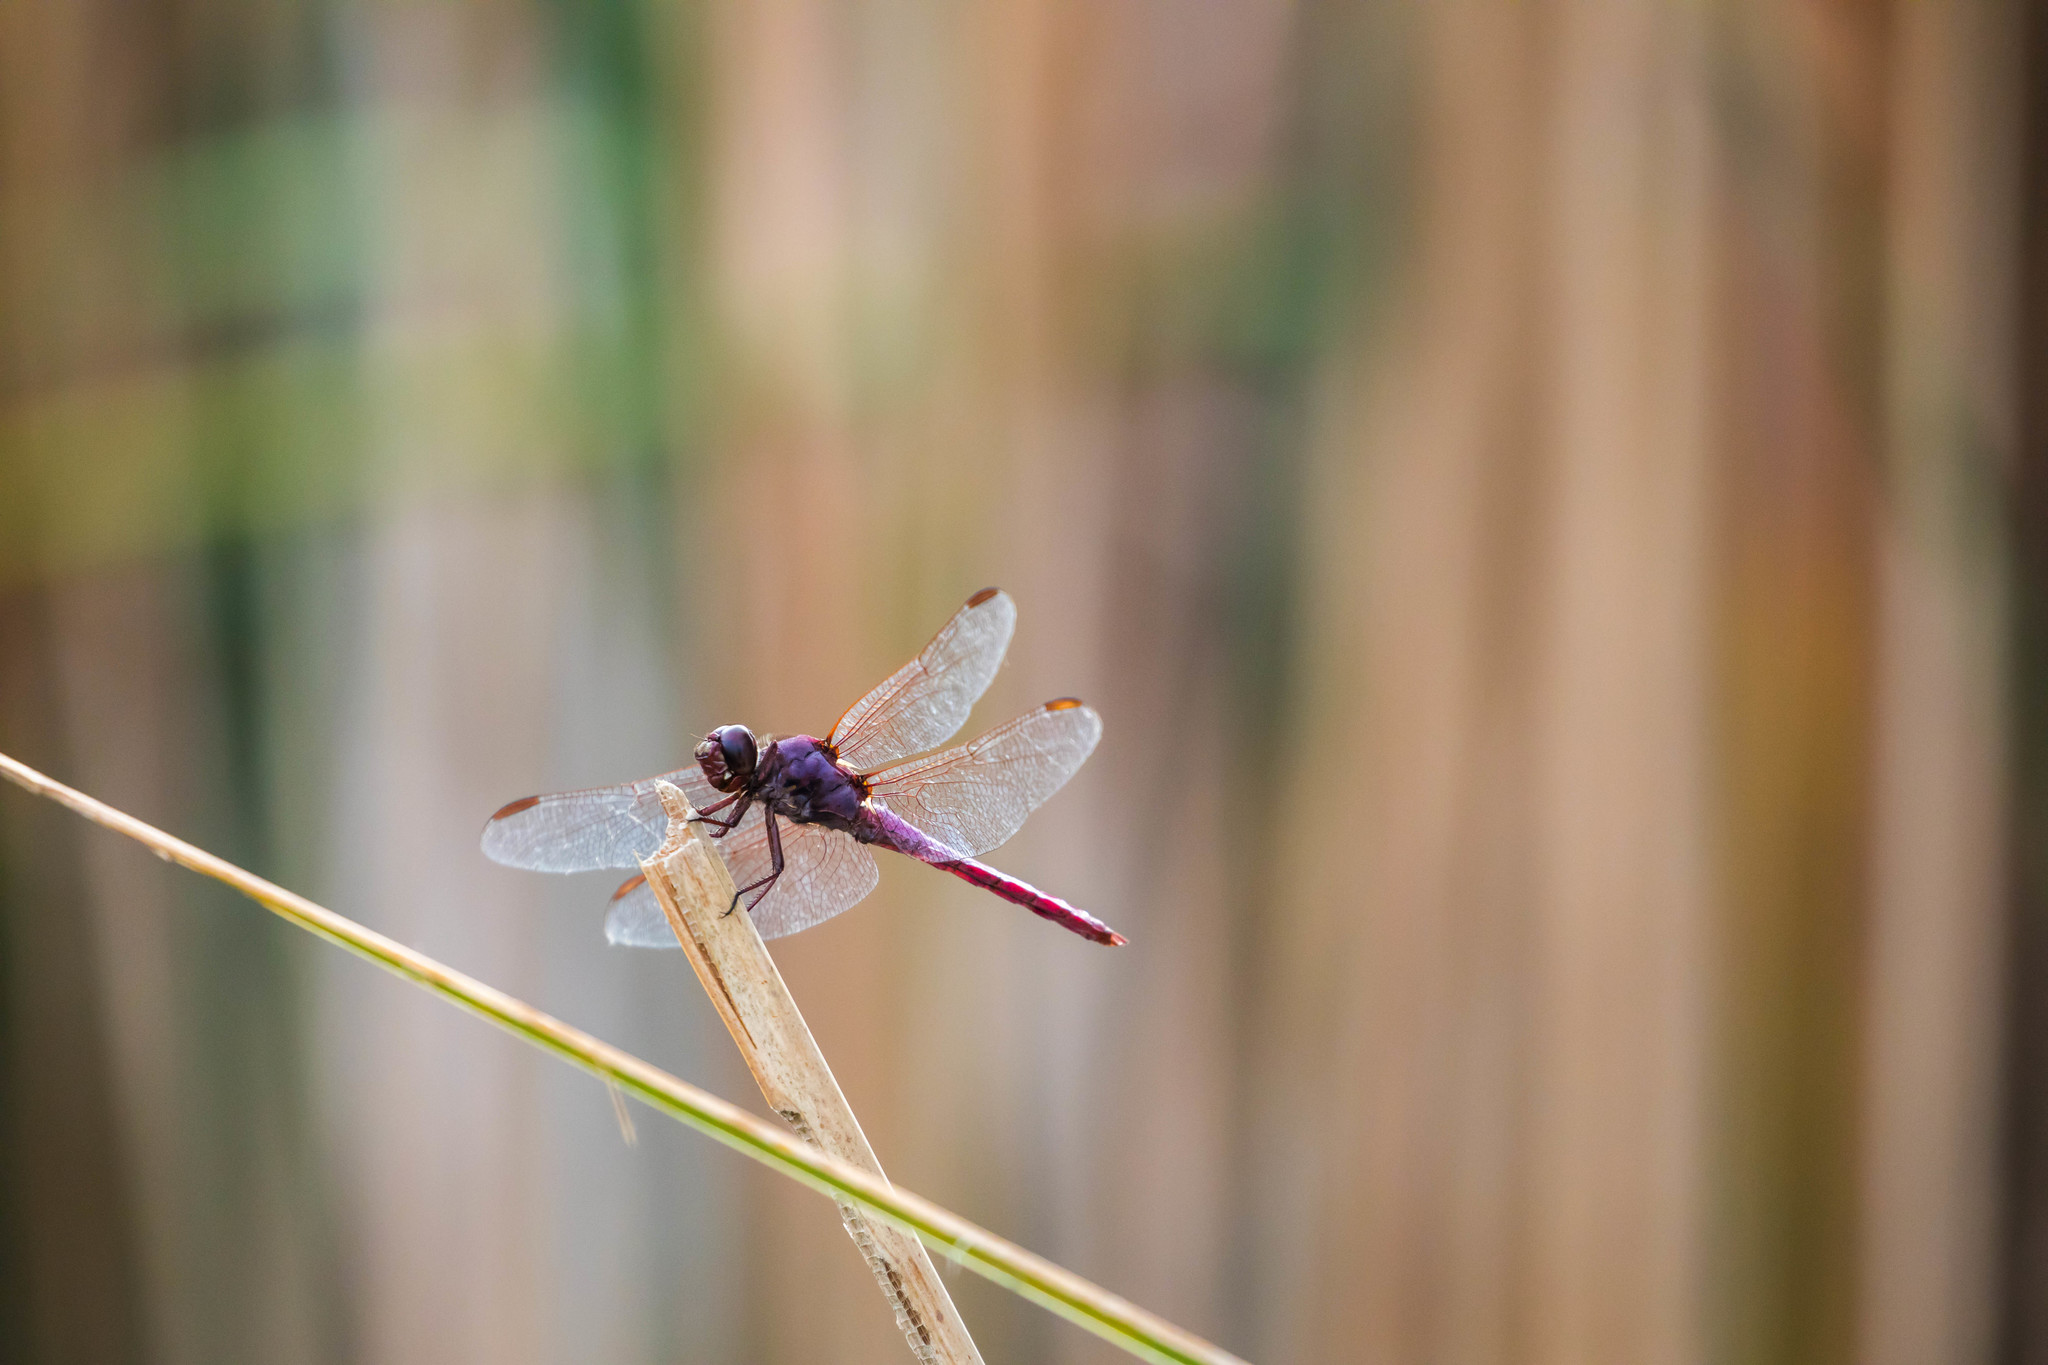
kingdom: Animalia
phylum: Arthropoda
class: Insecta
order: Odonata
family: Libellulidae
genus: Orthemis
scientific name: Orthemis ferruginea
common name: Roseate skimmer
